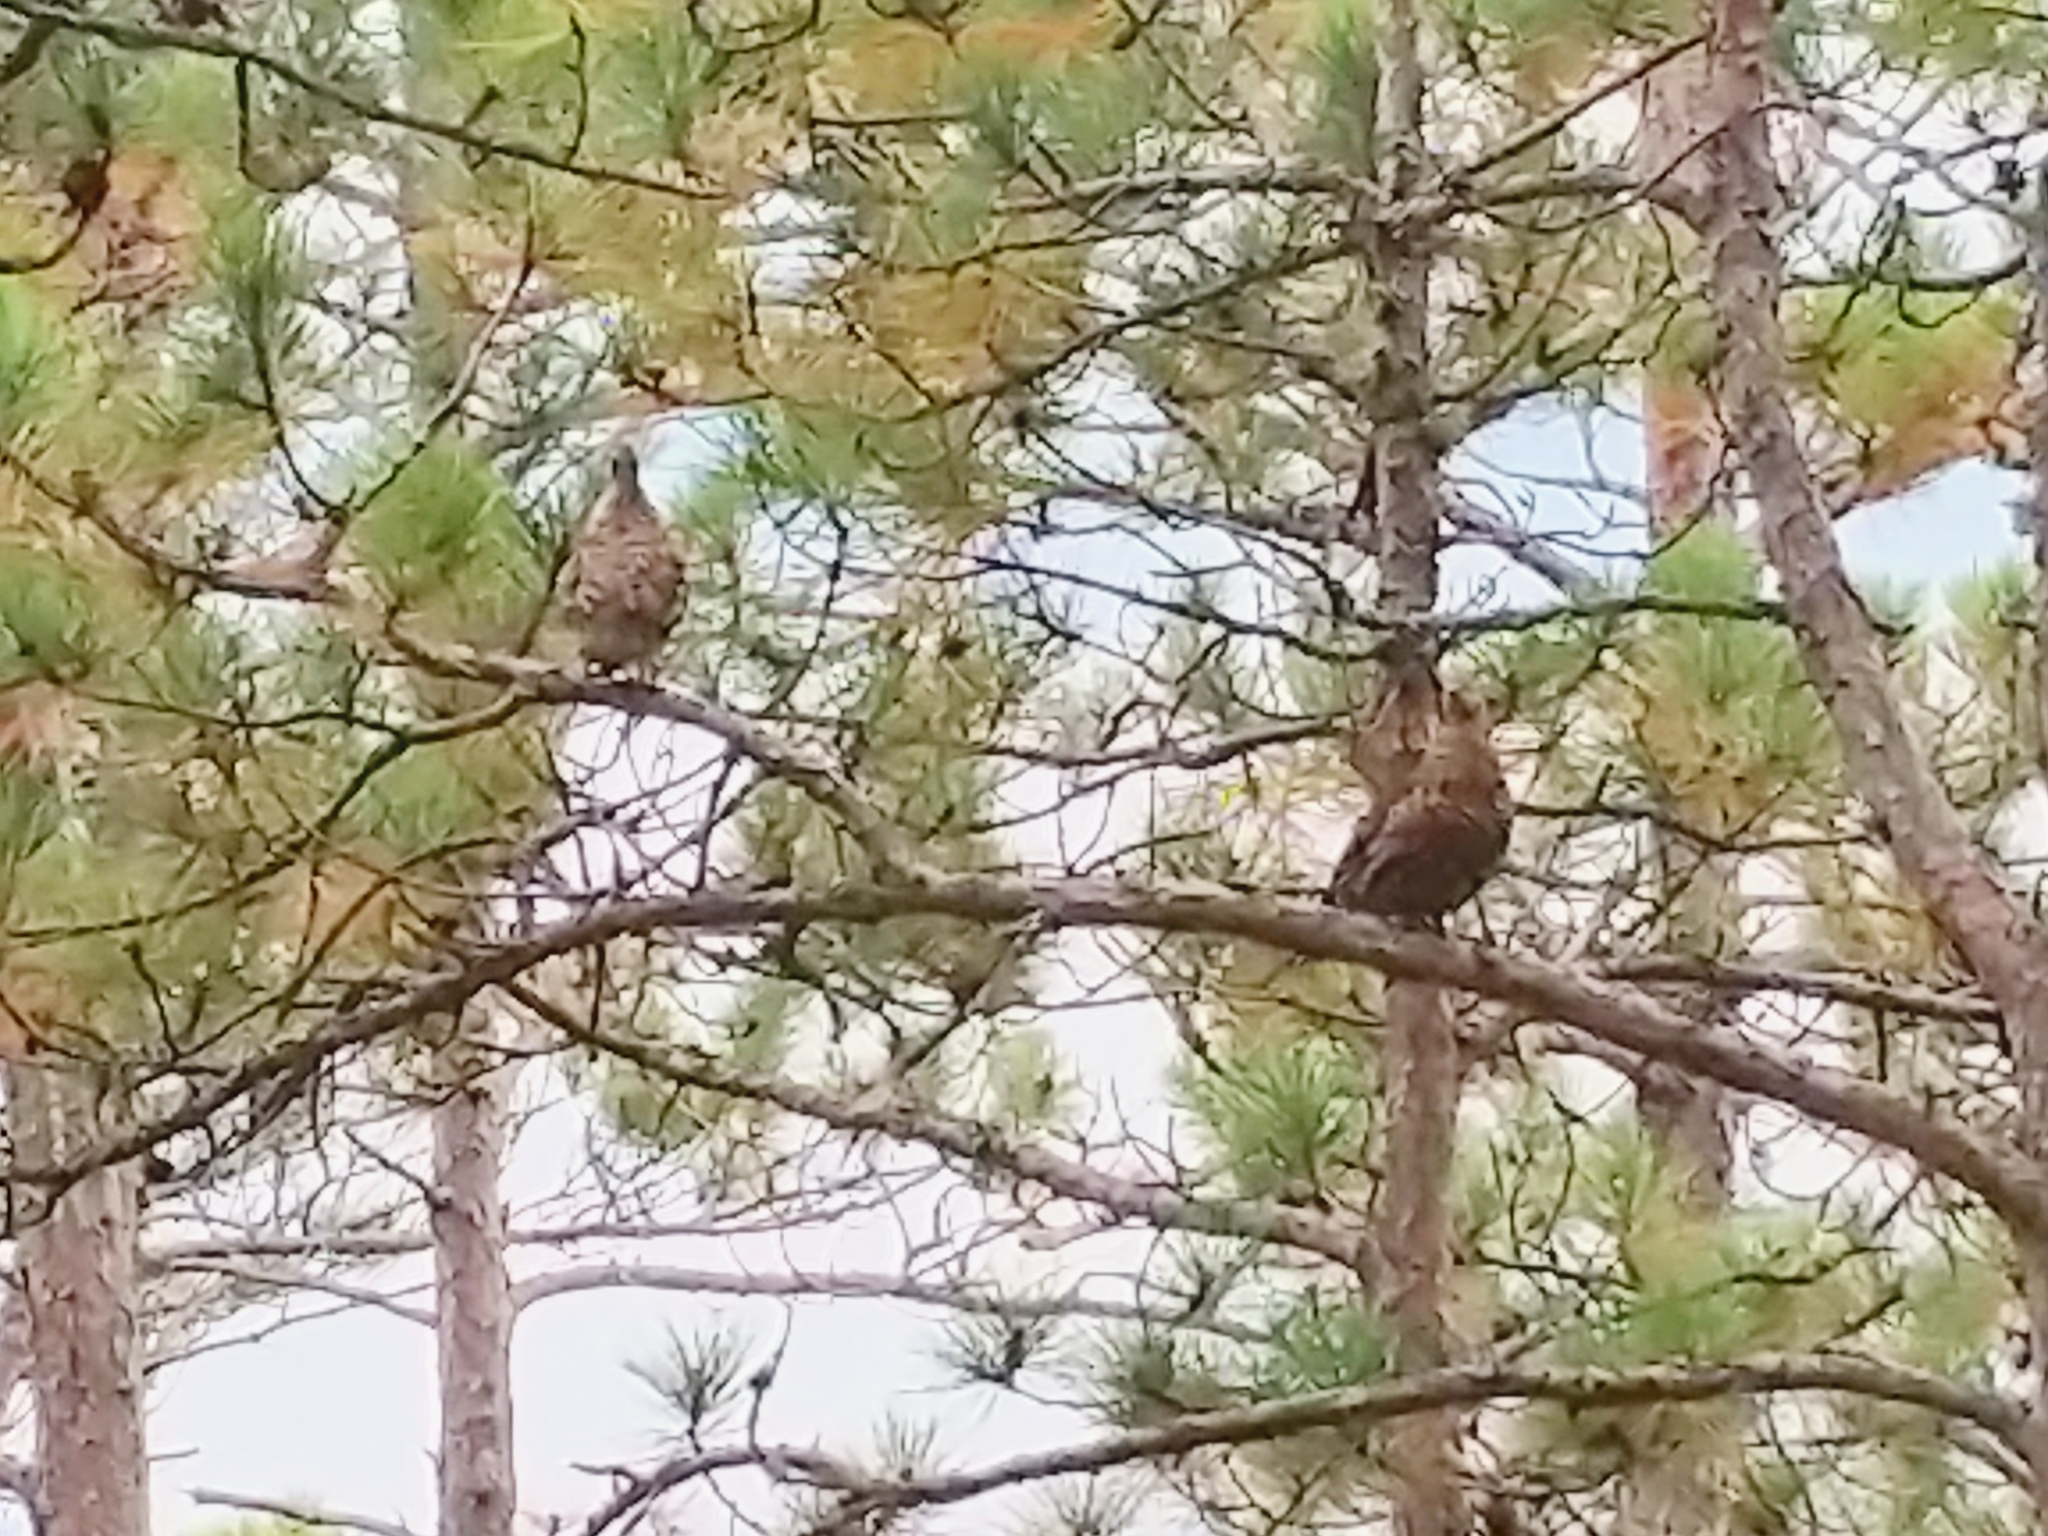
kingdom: Animalia
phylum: Chordata
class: Aves
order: Galliformes
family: Phasianidae
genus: Canachites
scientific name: Canachites canadensis
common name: Spruce grouse
